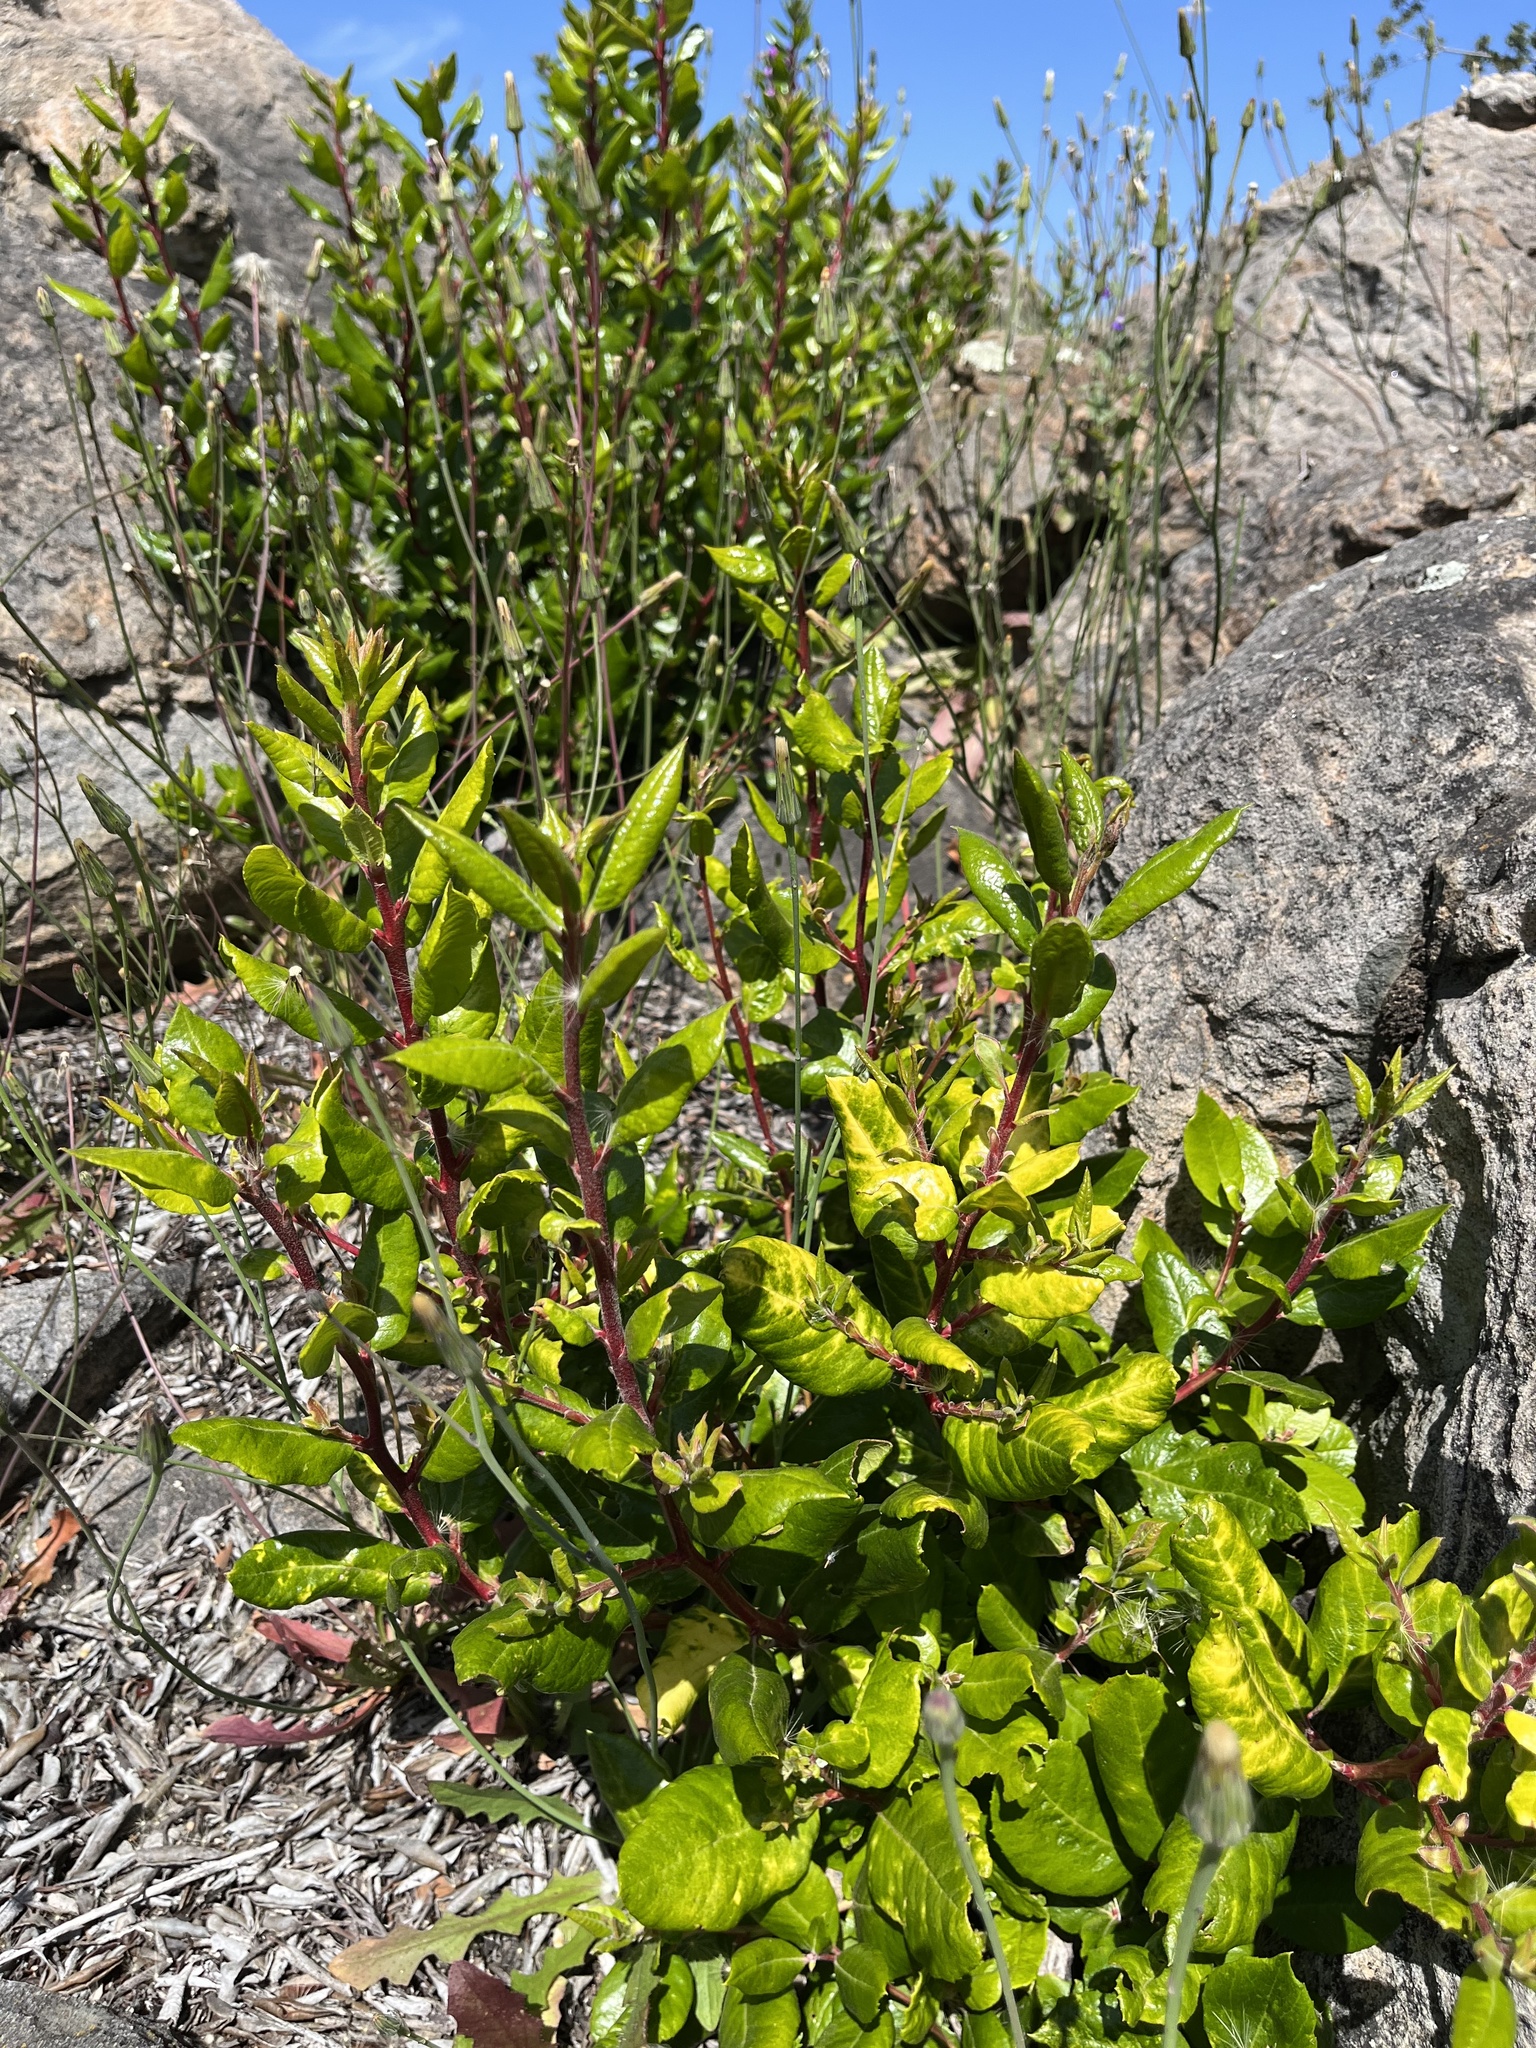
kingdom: Plantae
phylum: Tracheophyta
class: Magnoliopsida
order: Ericales
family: Ericaceae
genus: Arctostaphylos
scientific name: Arctostaphylos bicolor
